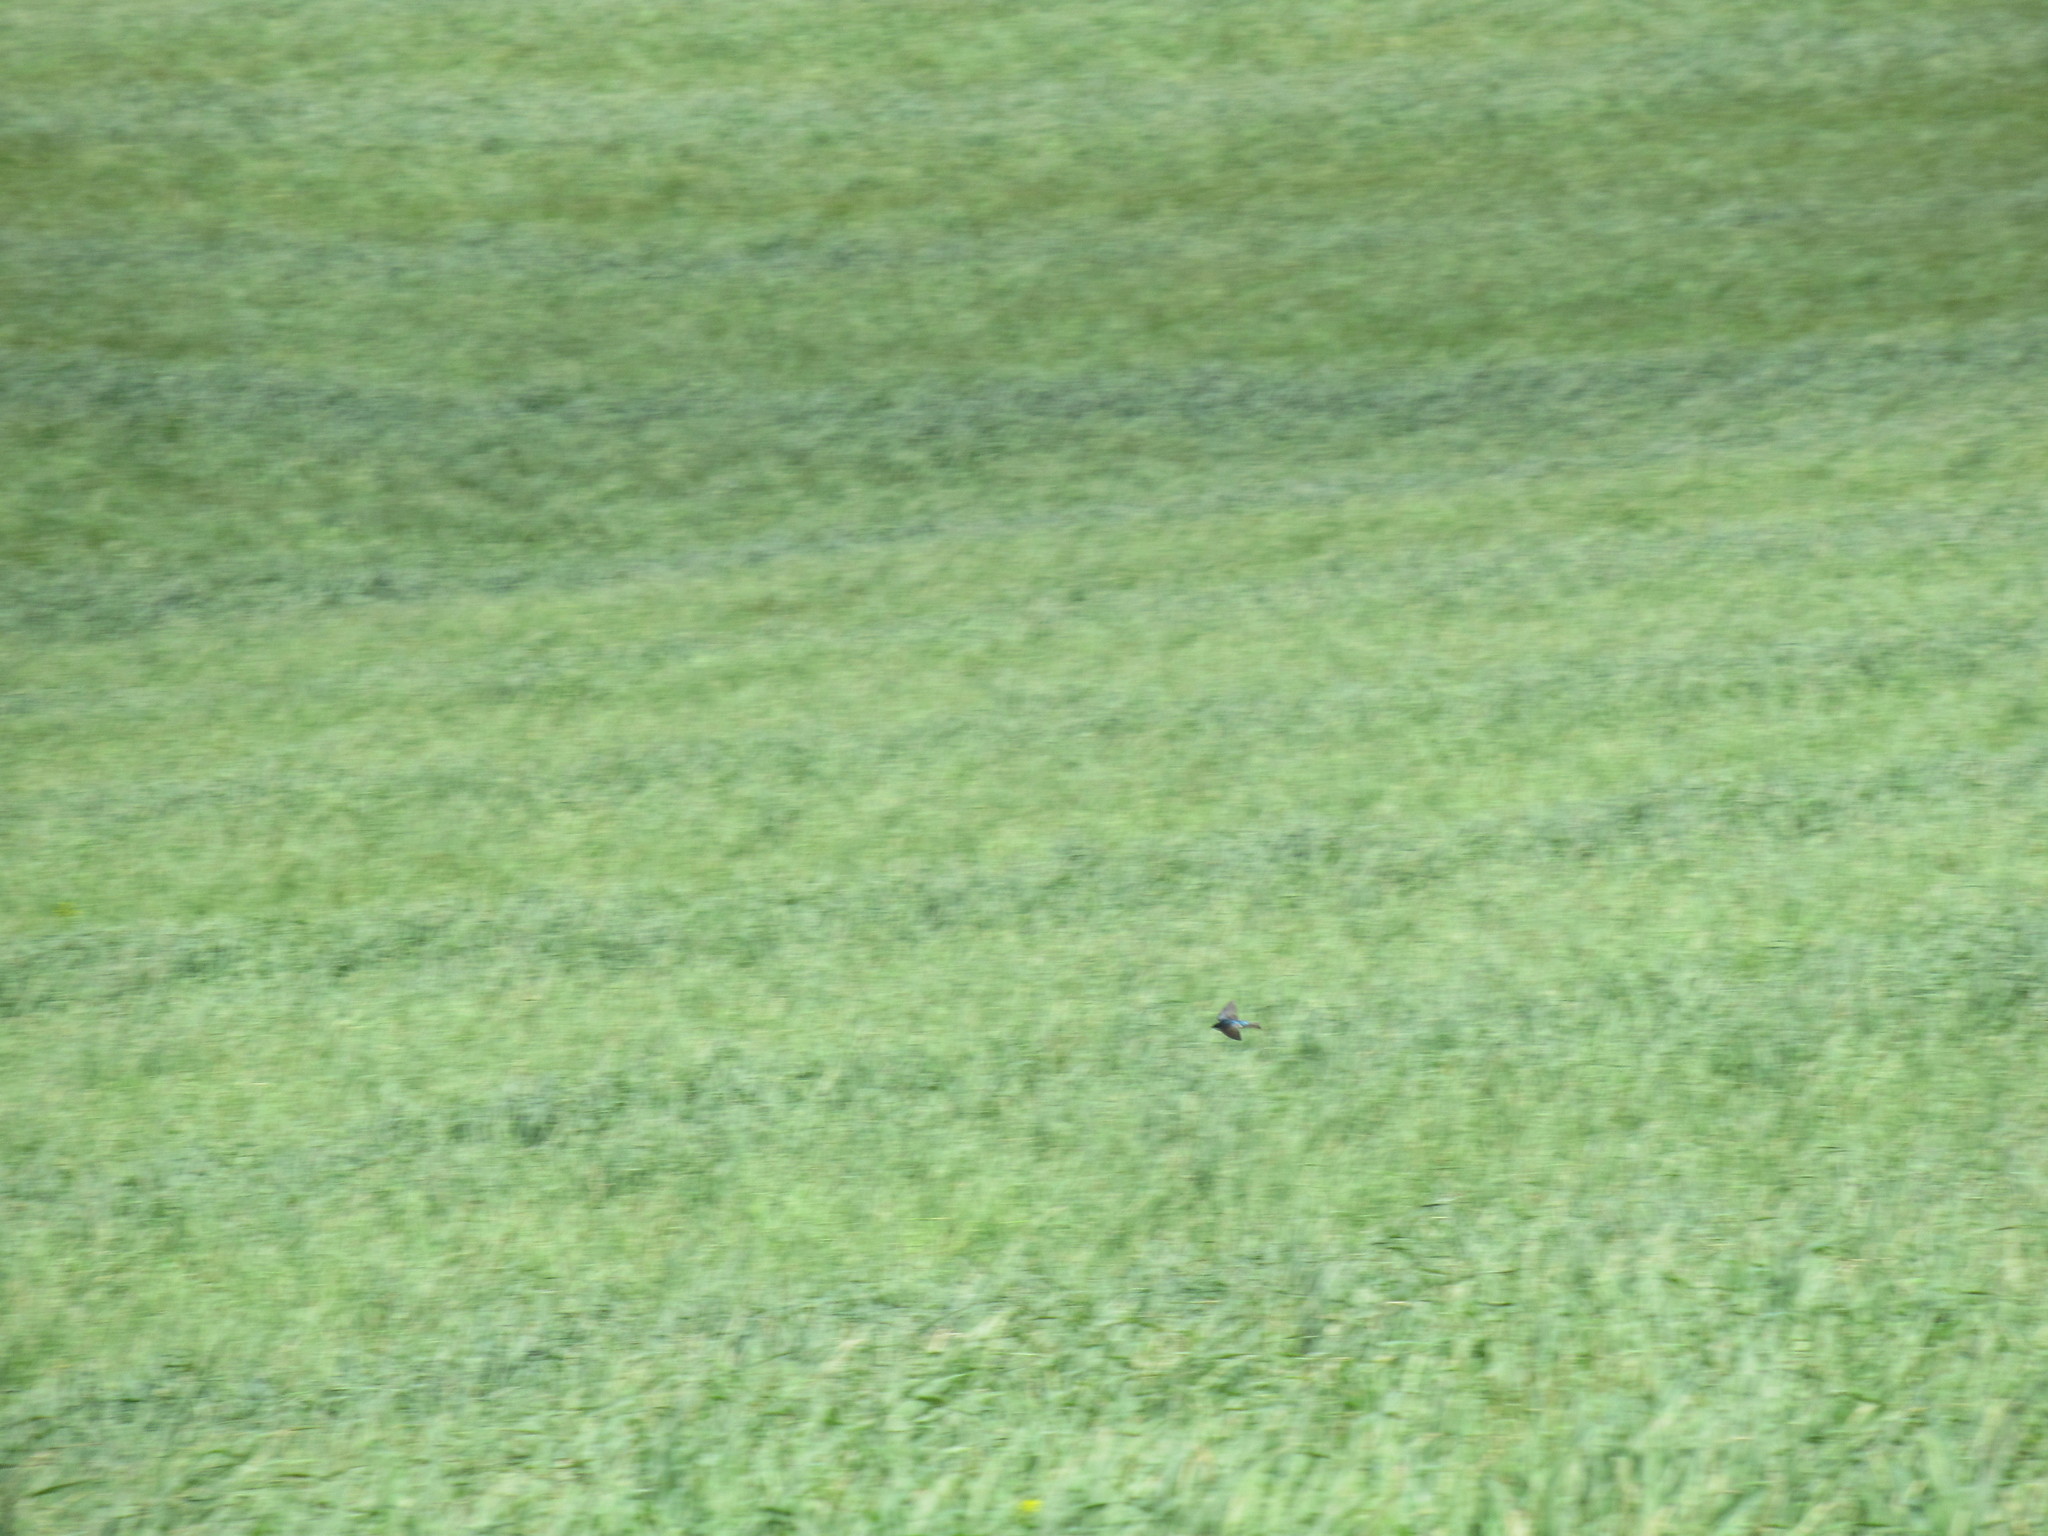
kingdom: Animalia
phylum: Chordata
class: Aves
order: Passeriformes
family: Hirundinidae
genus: Tachycineta
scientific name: Tachycineta bicolor
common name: Tree swallow
